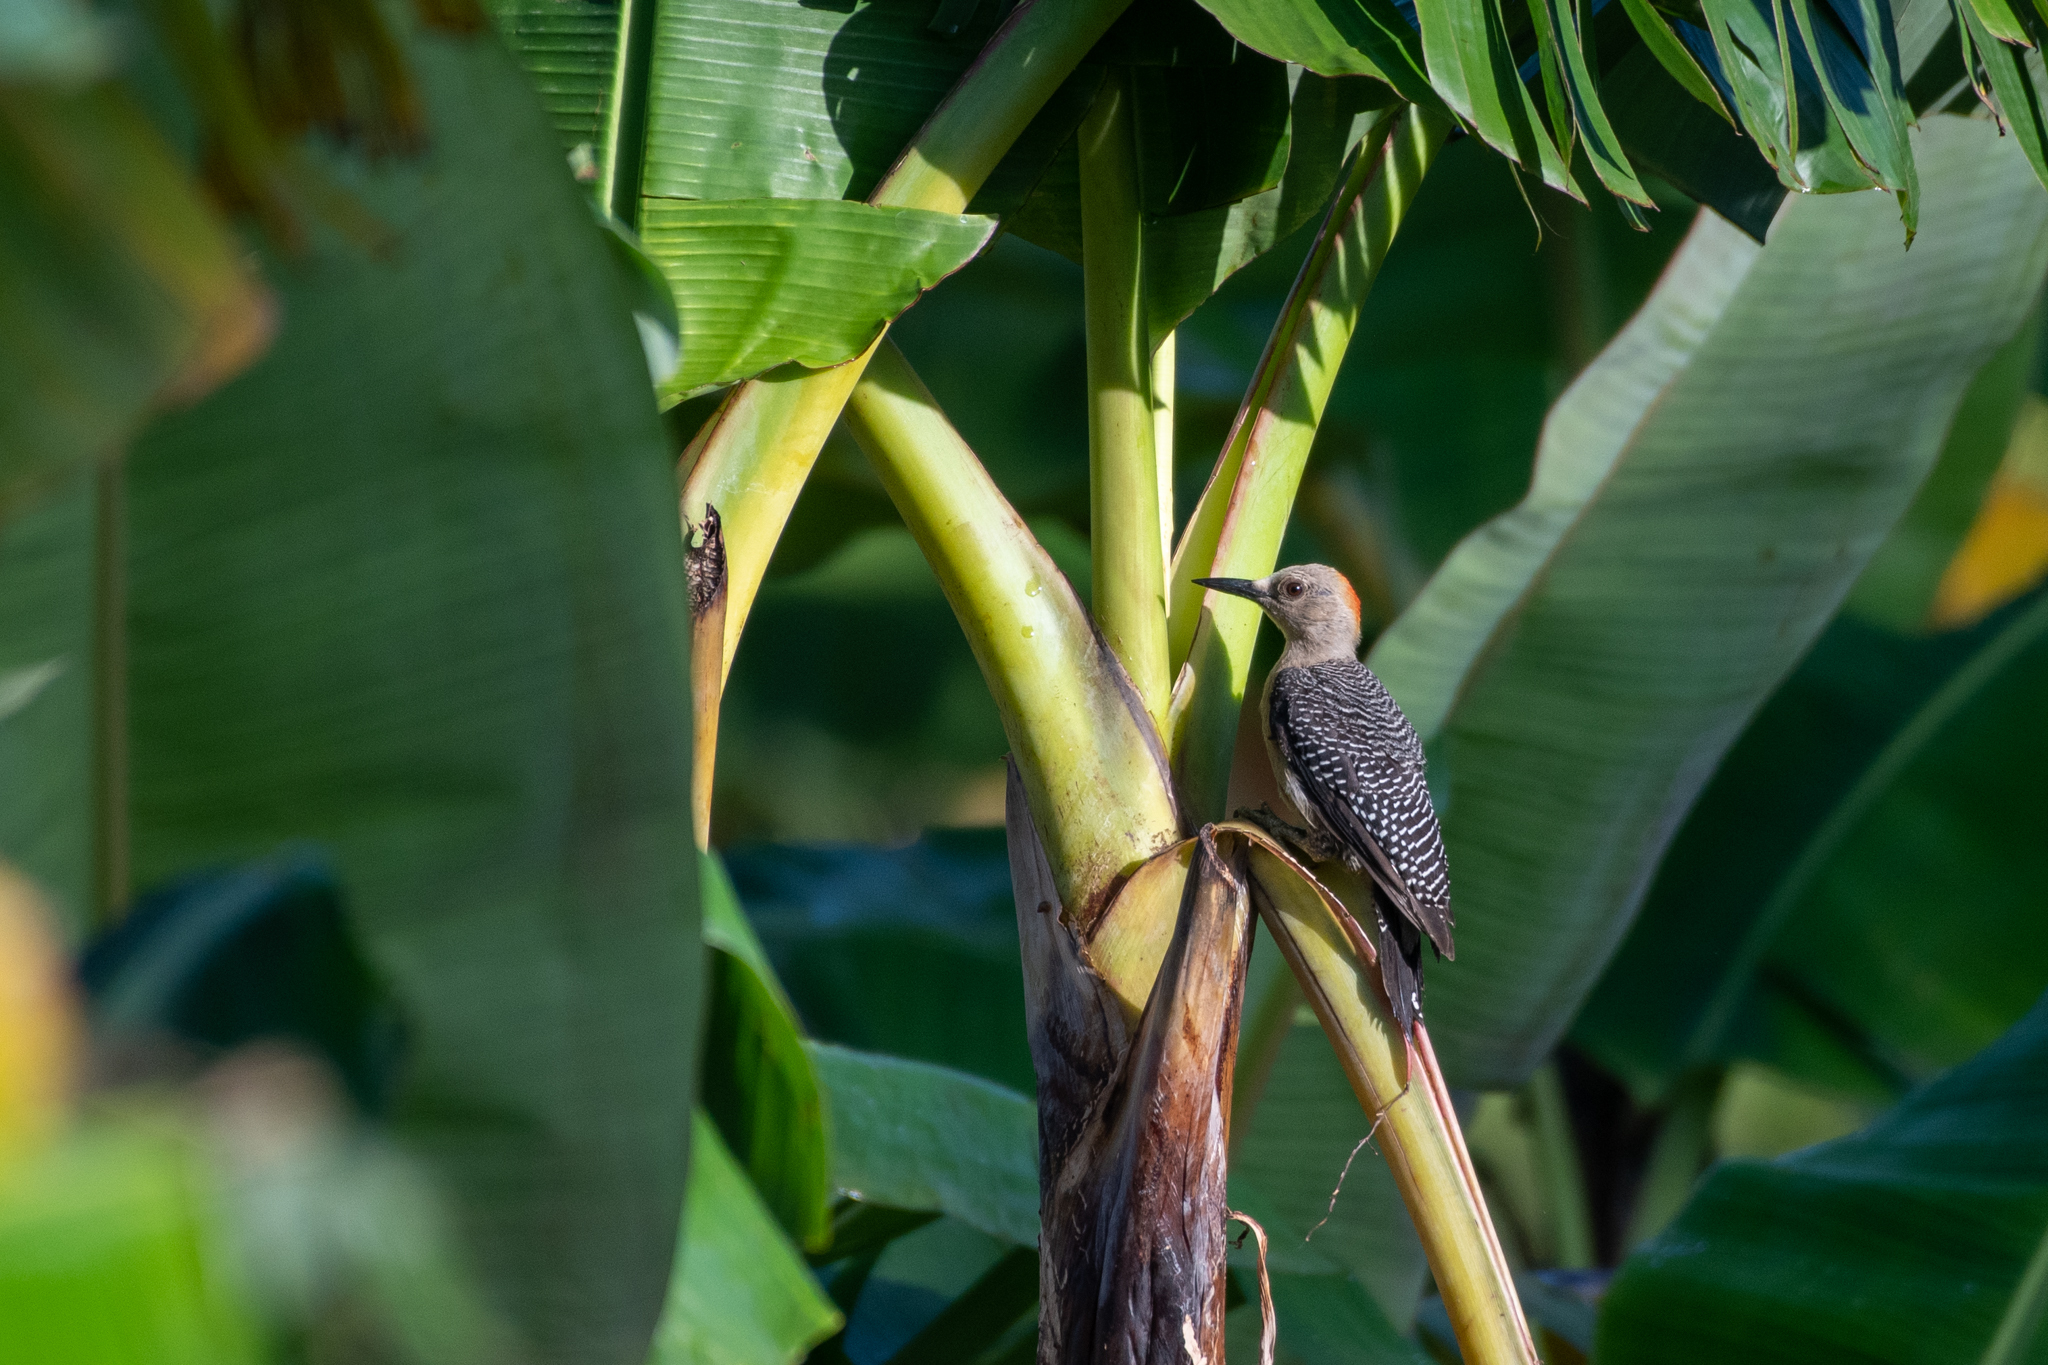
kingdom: Animalia
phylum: Chordata
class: Aves
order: Piciformes
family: Picidae
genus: Melanerpes
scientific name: Melanerpes santacruzi
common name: Velasquez's woodpecker
